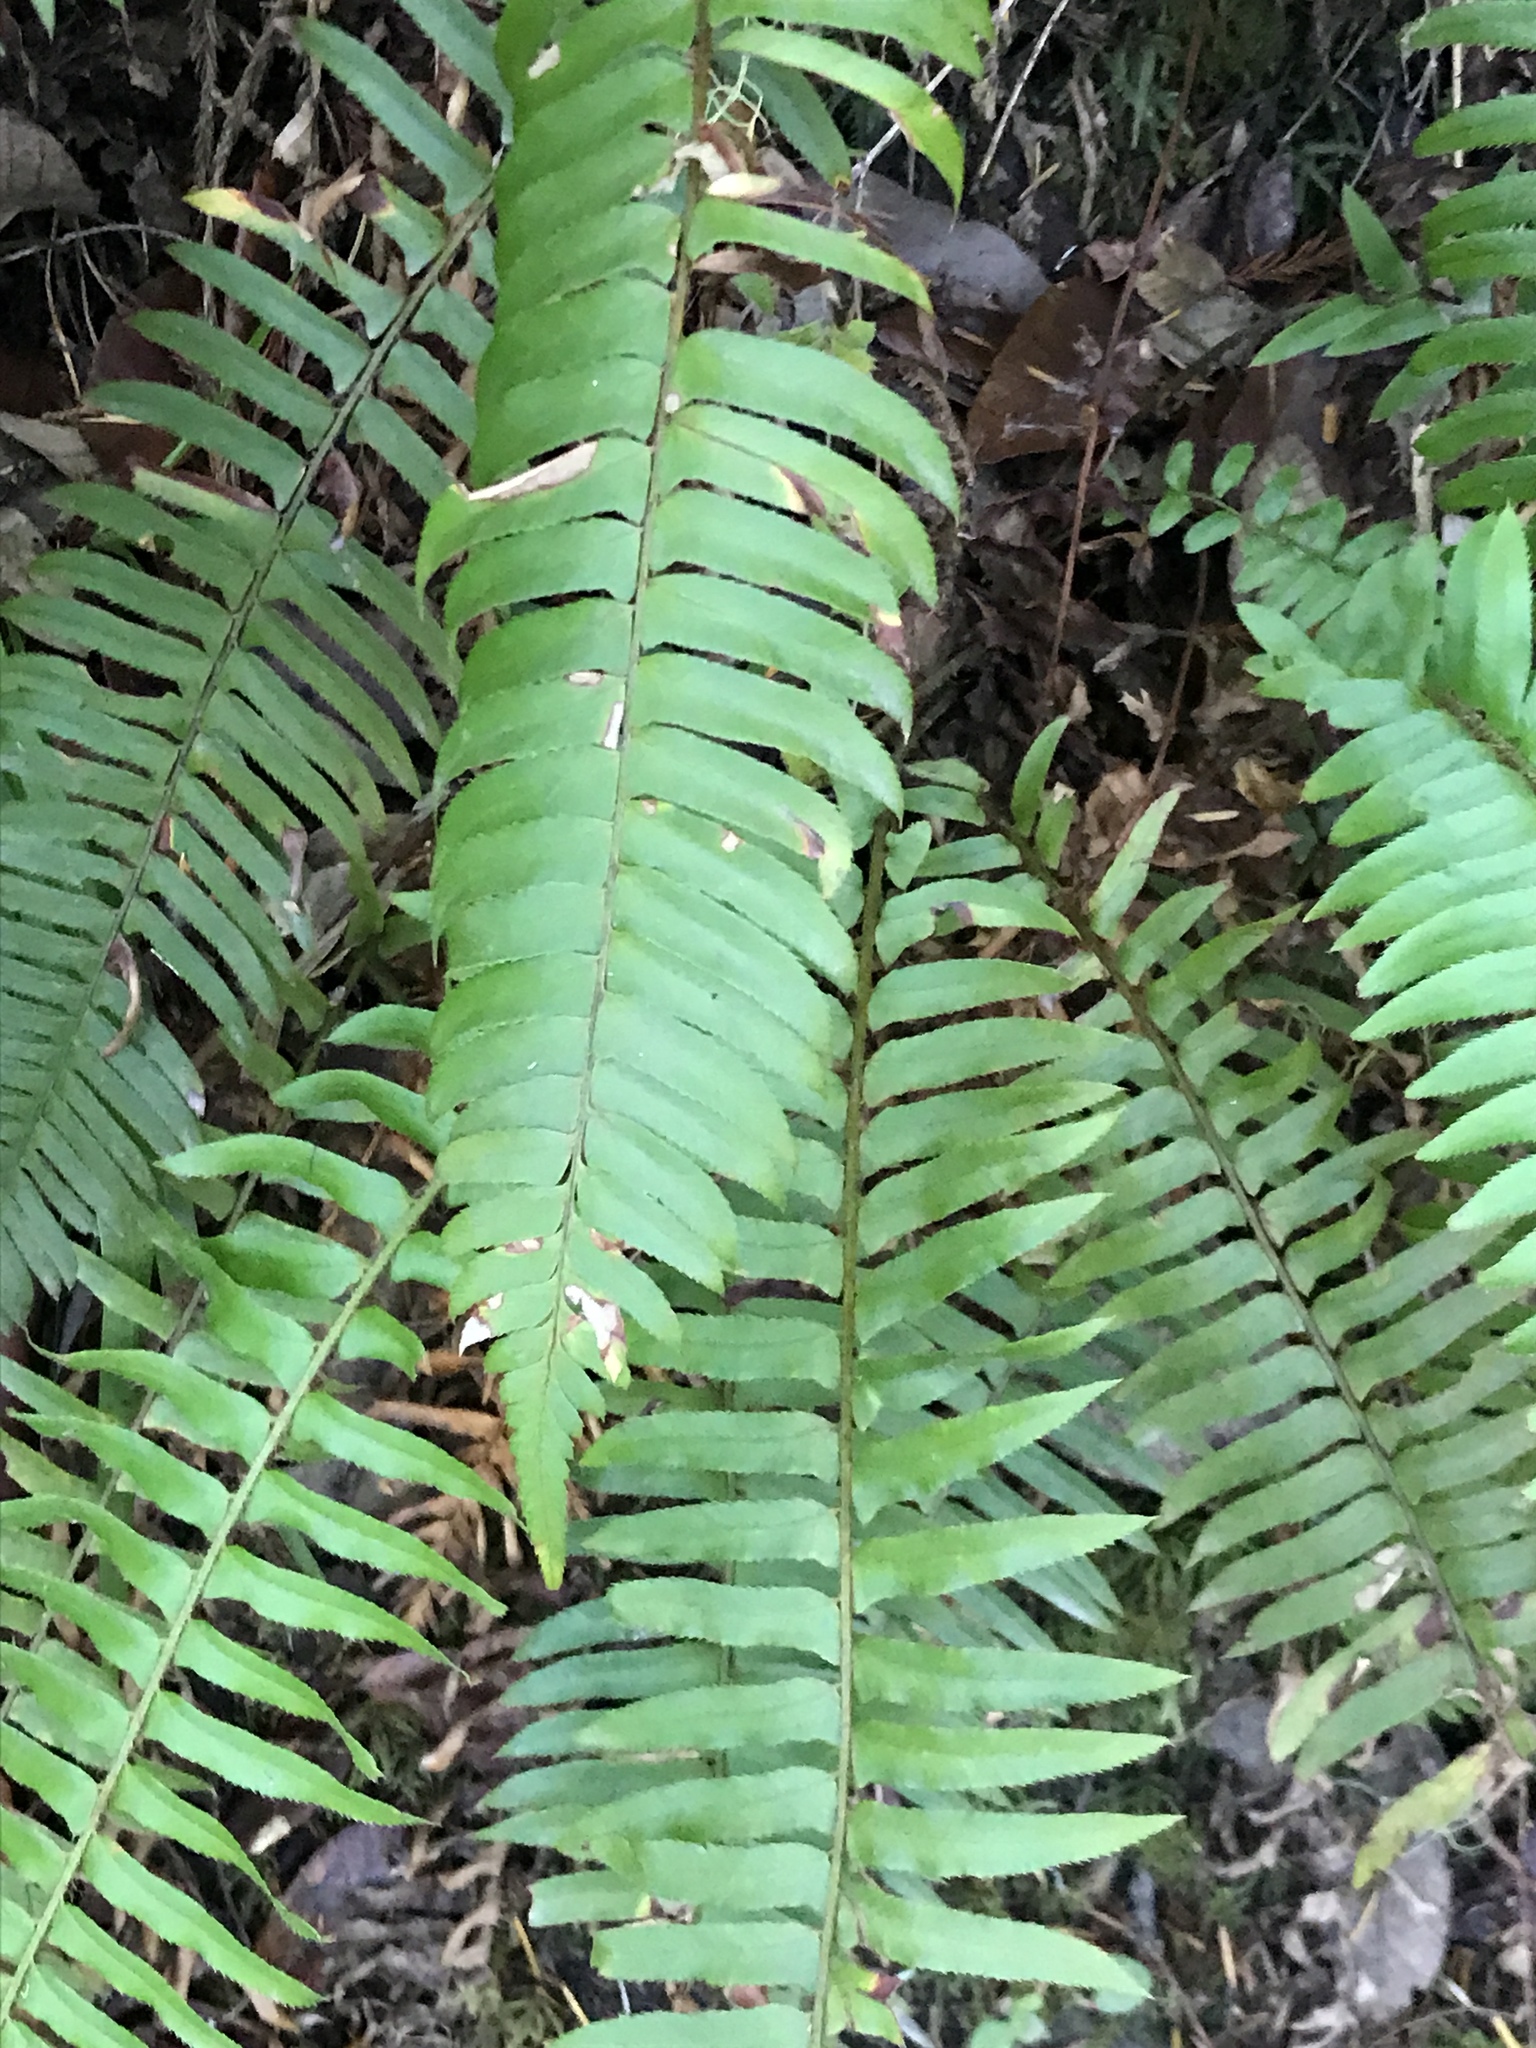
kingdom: Plantae
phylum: Tracheophyta
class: Polypodiopsida
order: Polypodiales
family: Dryopteridaceae
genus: Polystichum
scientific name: Polystichum munitum
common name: Western sword-fern
